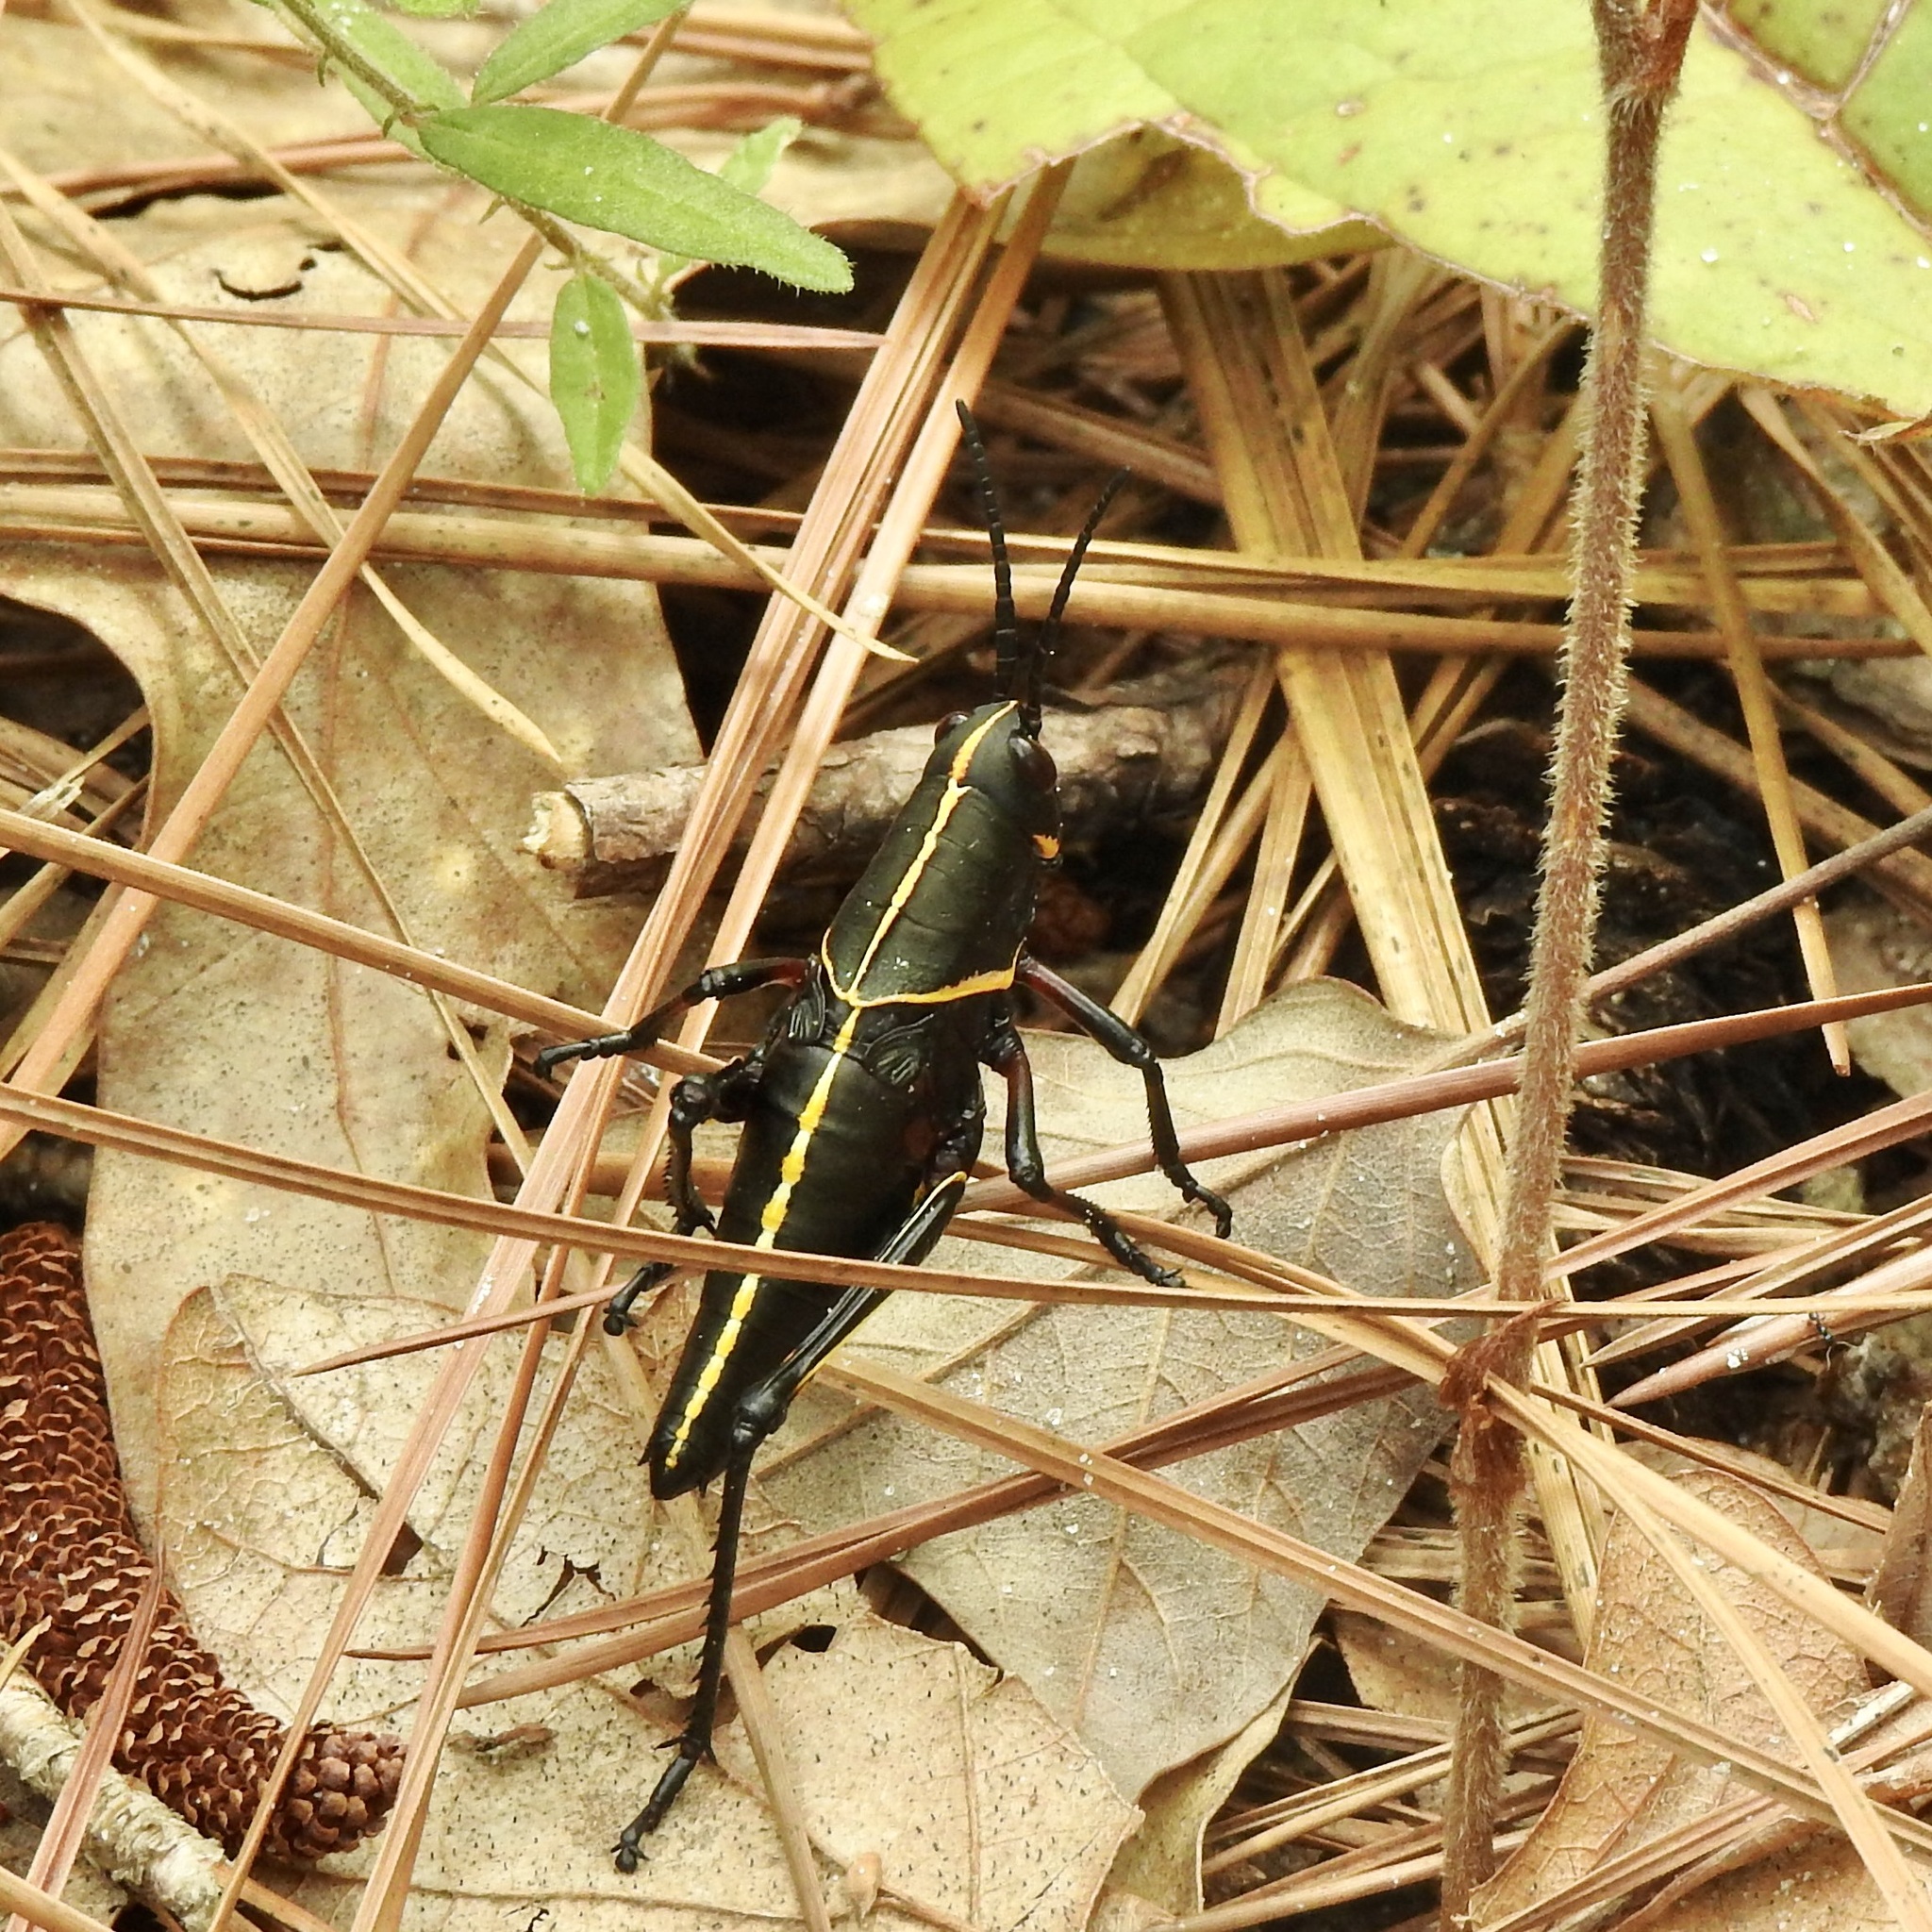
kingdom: Animalia
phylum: Arthropoda
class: Insecta
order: Orthoptera
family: Romaleidae
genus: Romalea
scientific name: Romalea microptera
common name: Eastern lubber grasshopper
